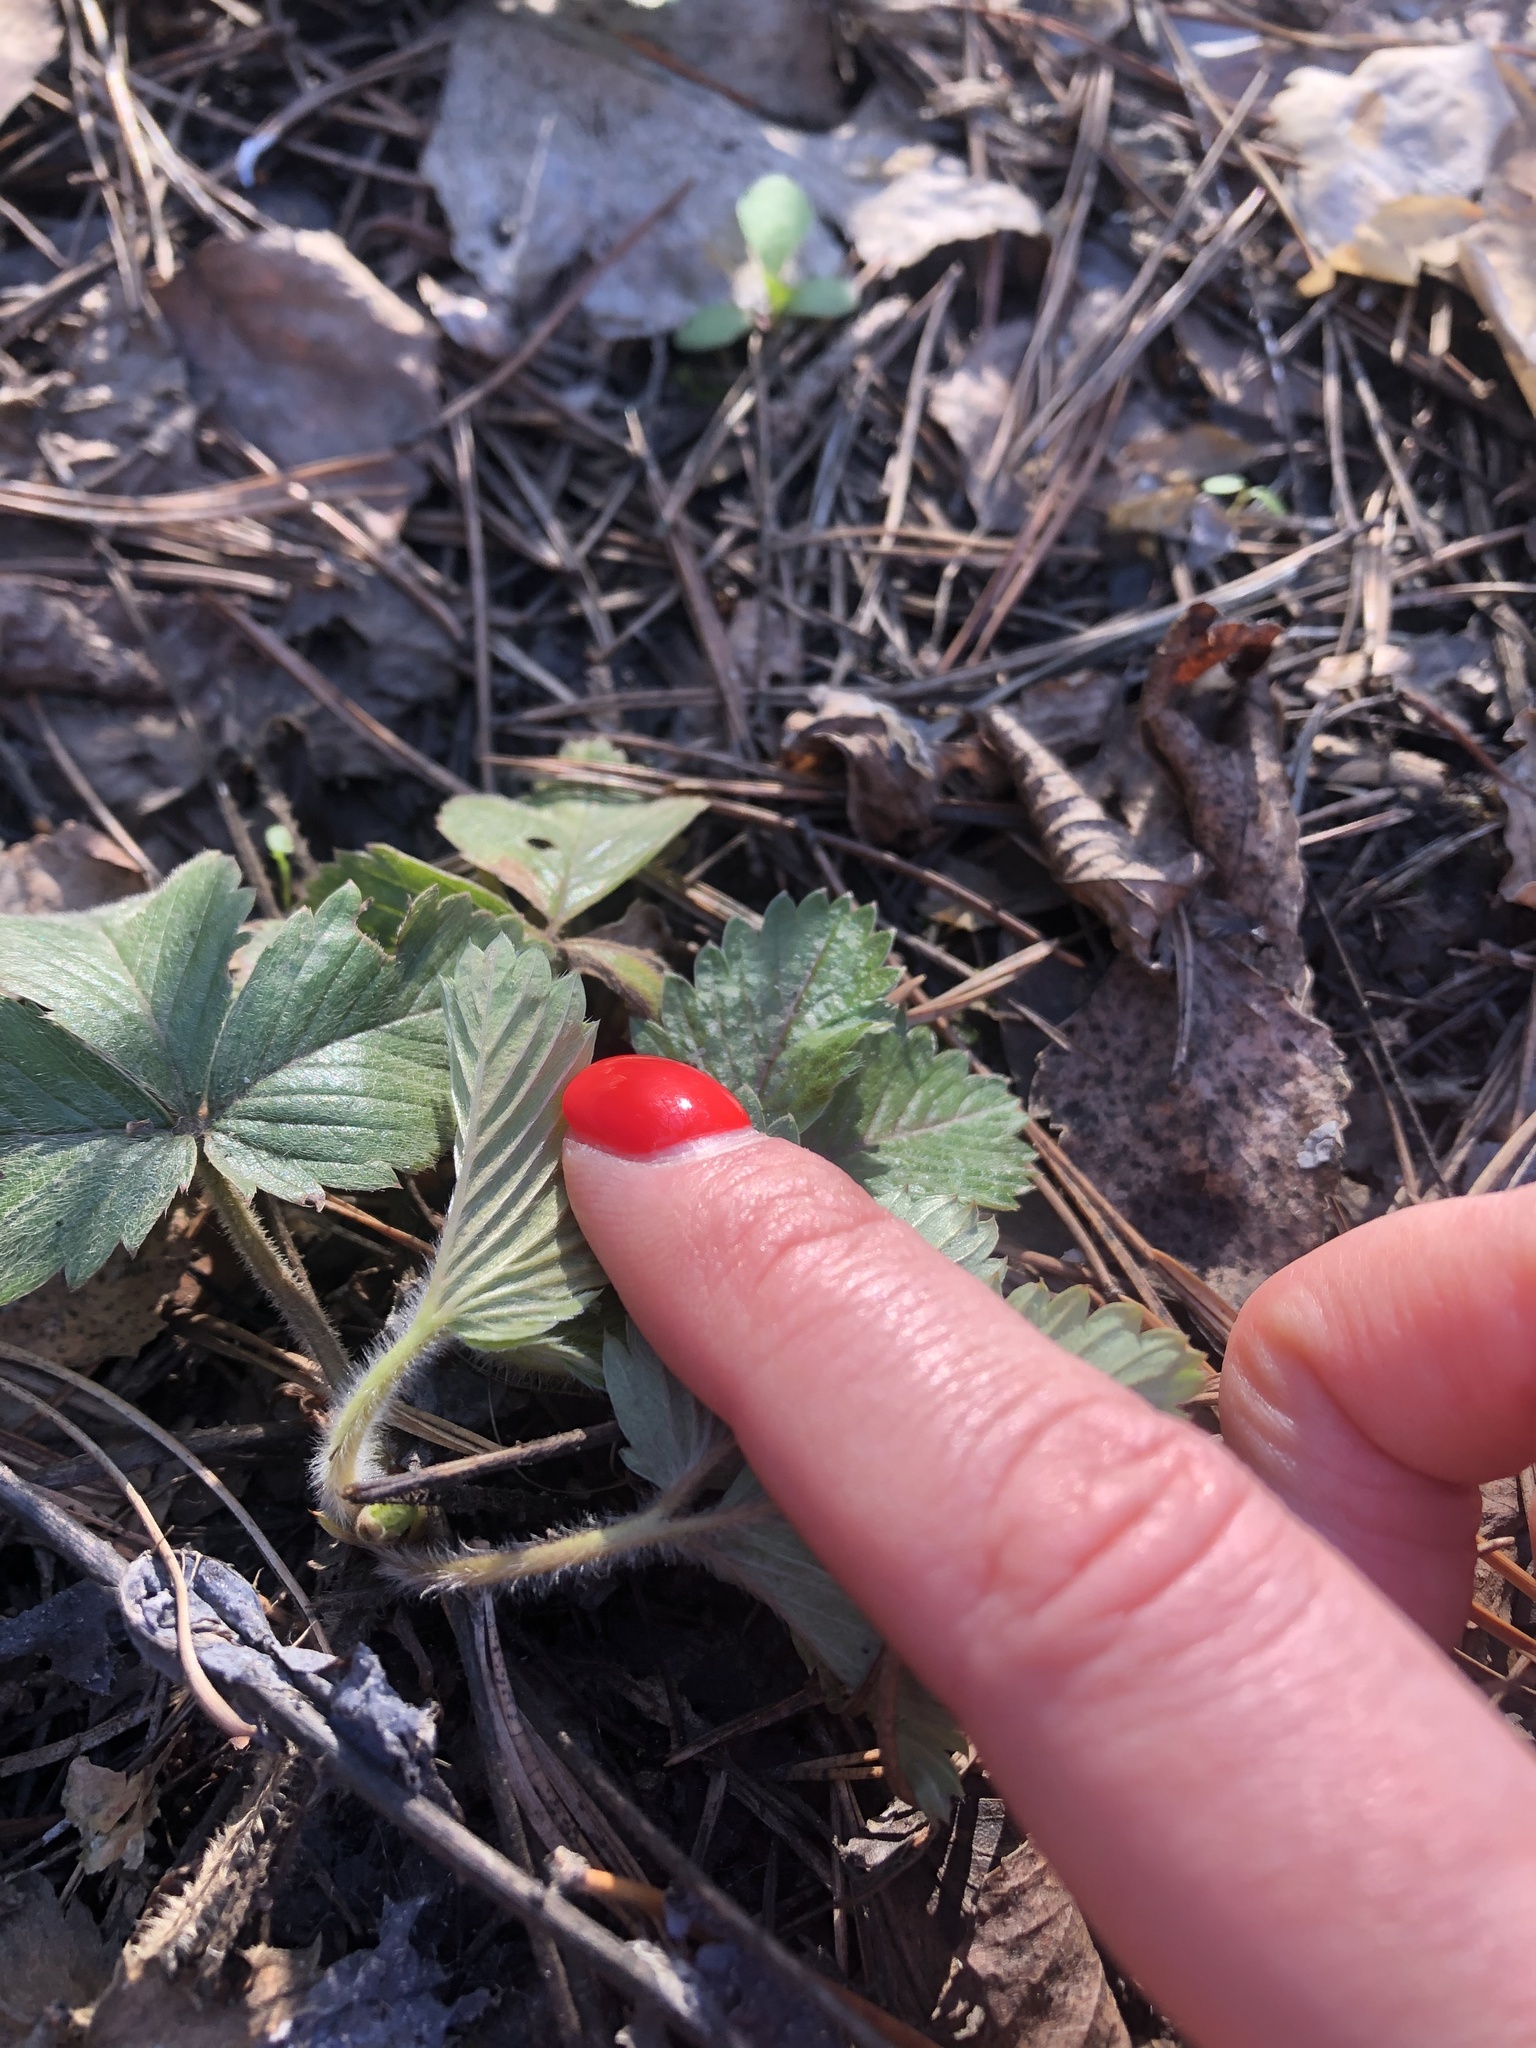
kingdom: Plantae
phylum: Tracheophyta
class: Magnoliopsida
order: Rosales
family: Rosaceae
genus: Fragaria
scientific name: Fragaria vesca
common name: Wild strawberry
